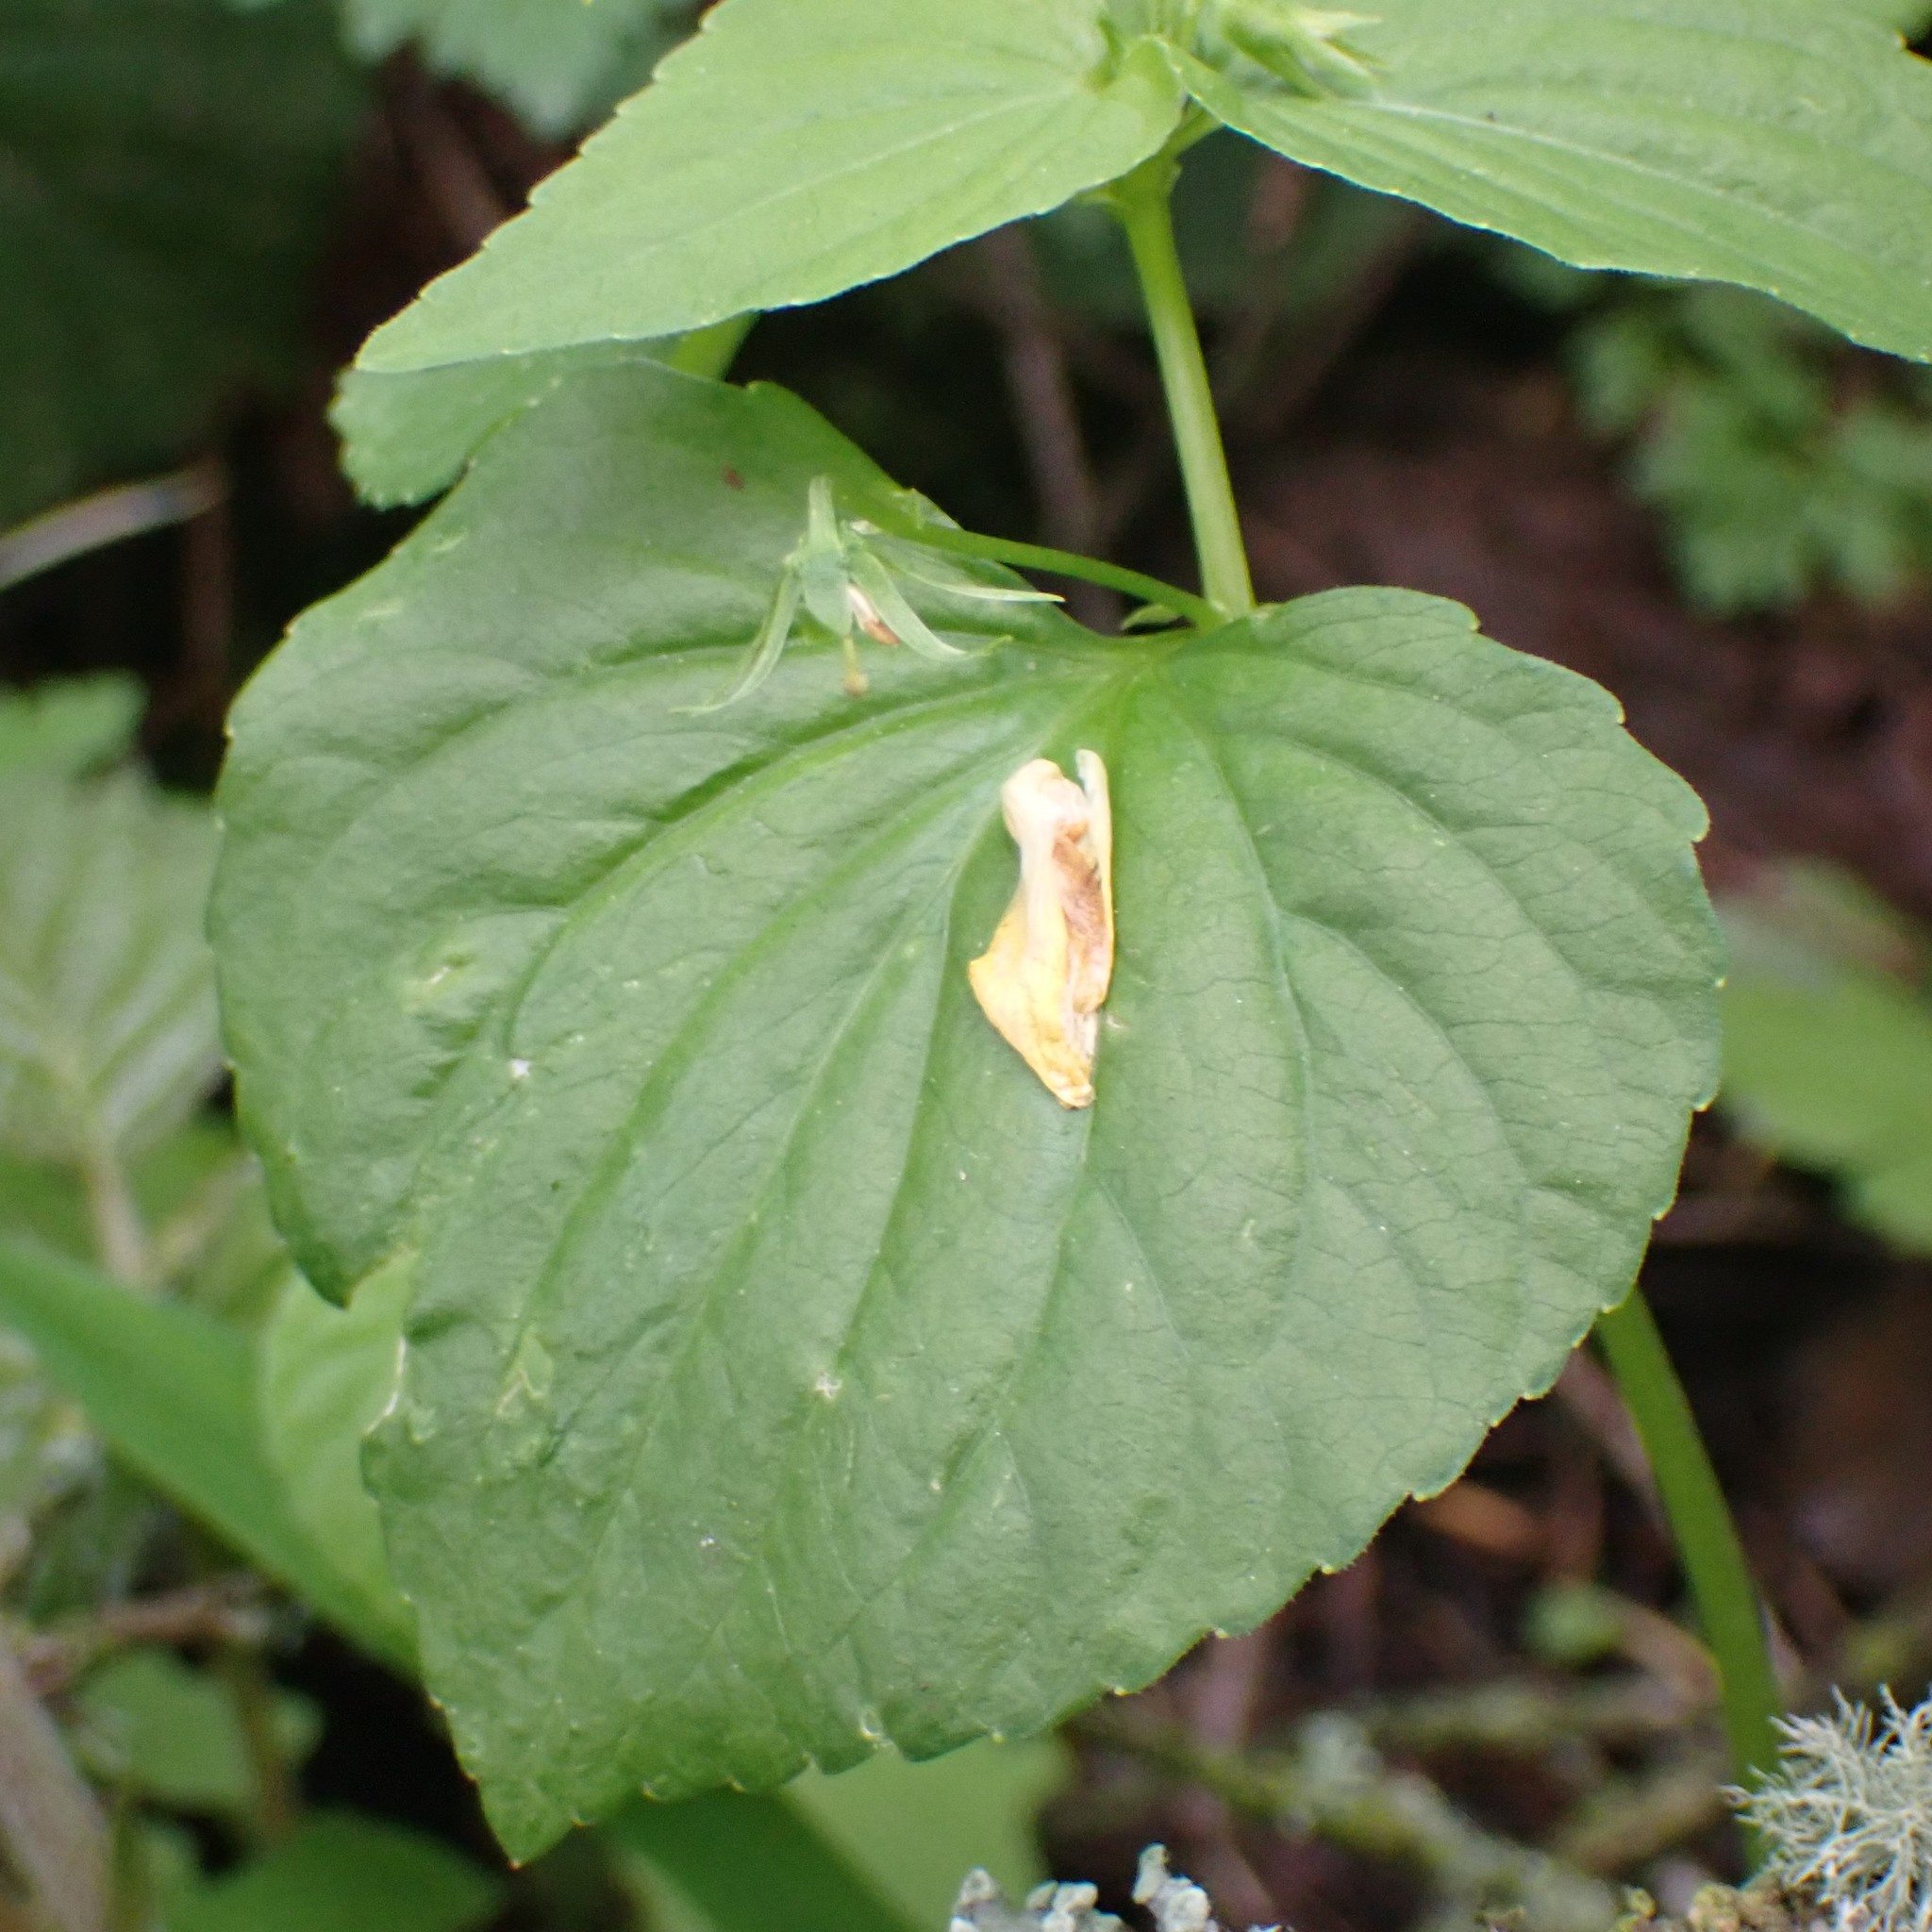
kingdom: Plantae
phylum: Tracheophyta
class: Magnoliopsida
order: Malpighiales
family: Violaceae
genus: Viola
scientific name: Viola glabella
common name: Stream violet
